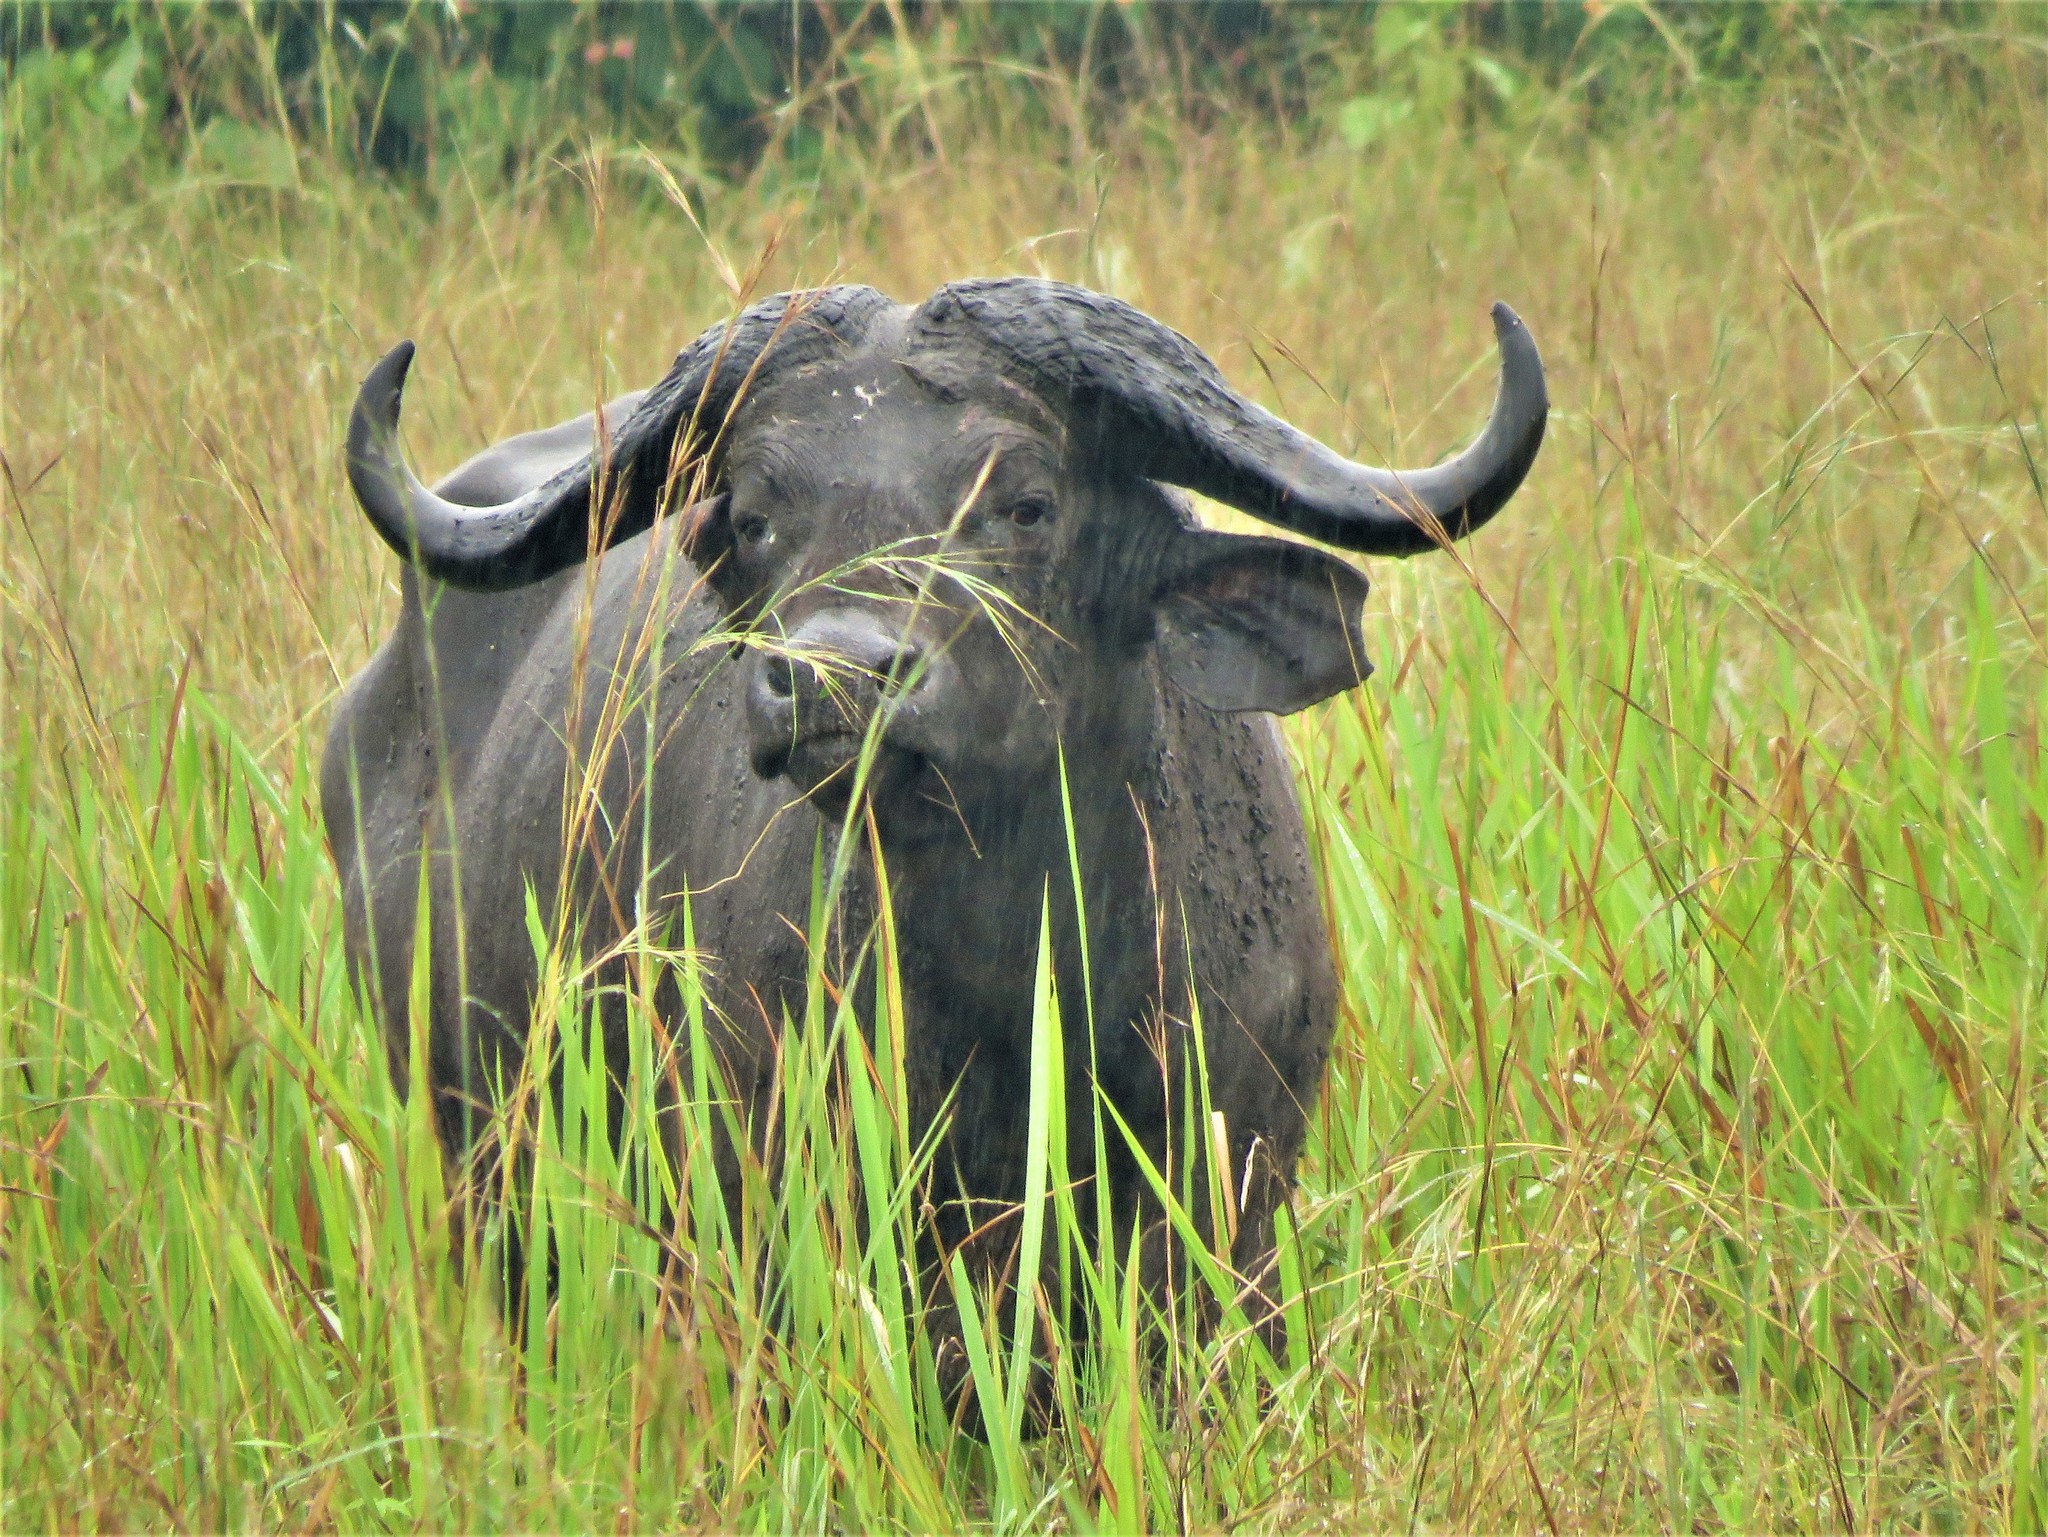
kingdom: Animalia
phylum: Chordata
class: Mammalia
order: Artiodactyla
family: Bovidae
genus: Syncerus
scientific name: Syncerus caffer
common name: African buffalo
